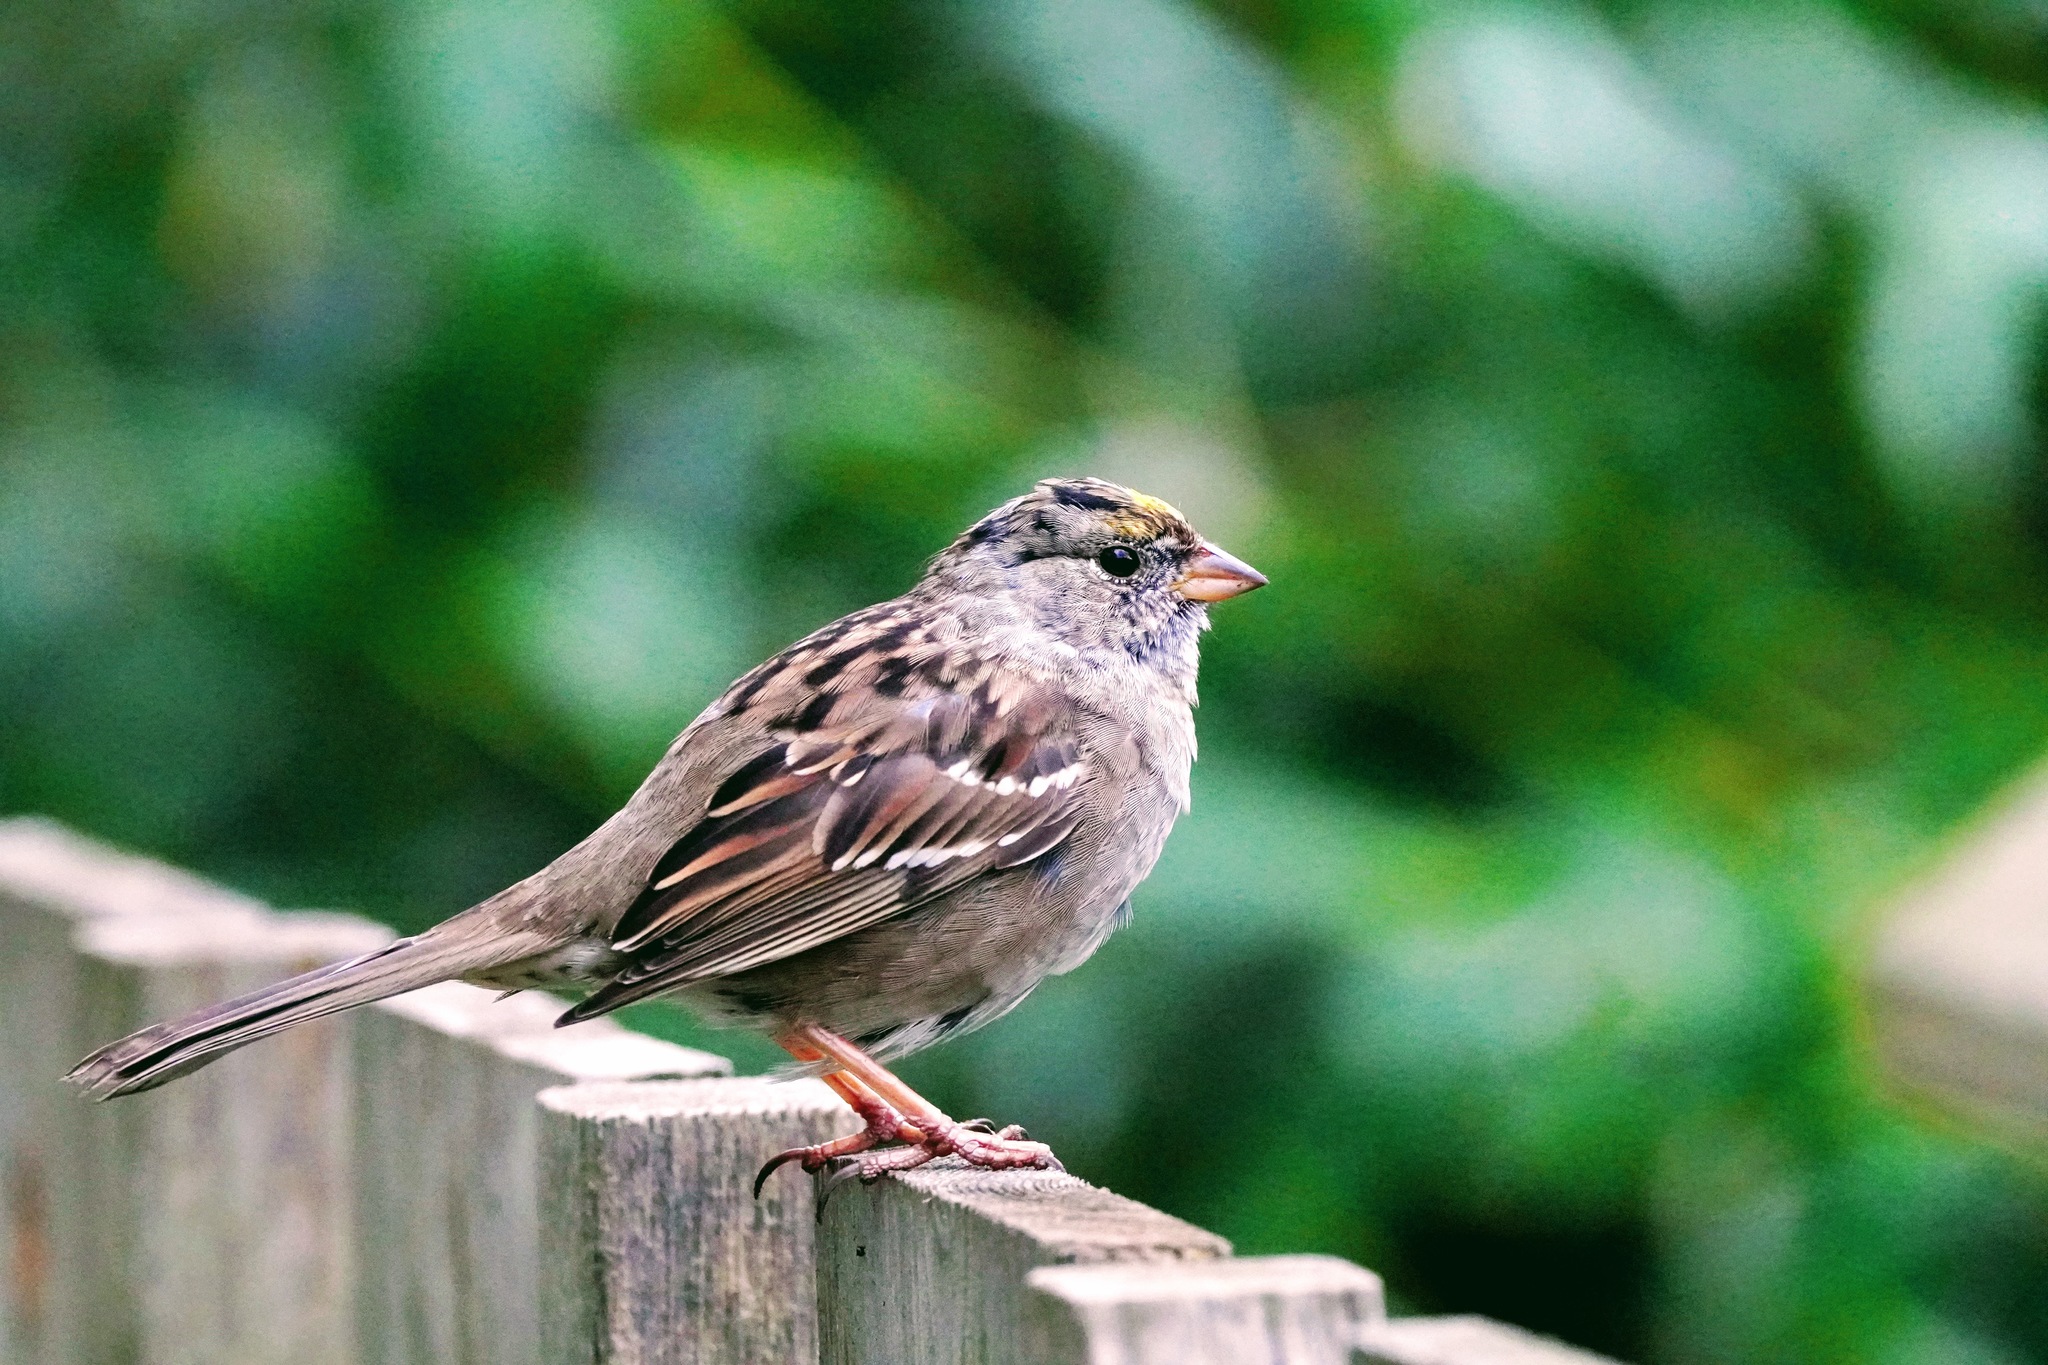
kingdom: Animalia
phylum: Chordata
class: Aves
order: Passeriformes
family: Passerellidae
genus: Zonotrichia
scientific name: Zonotrichia atricapilla
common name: Golden-crowned sparrow
